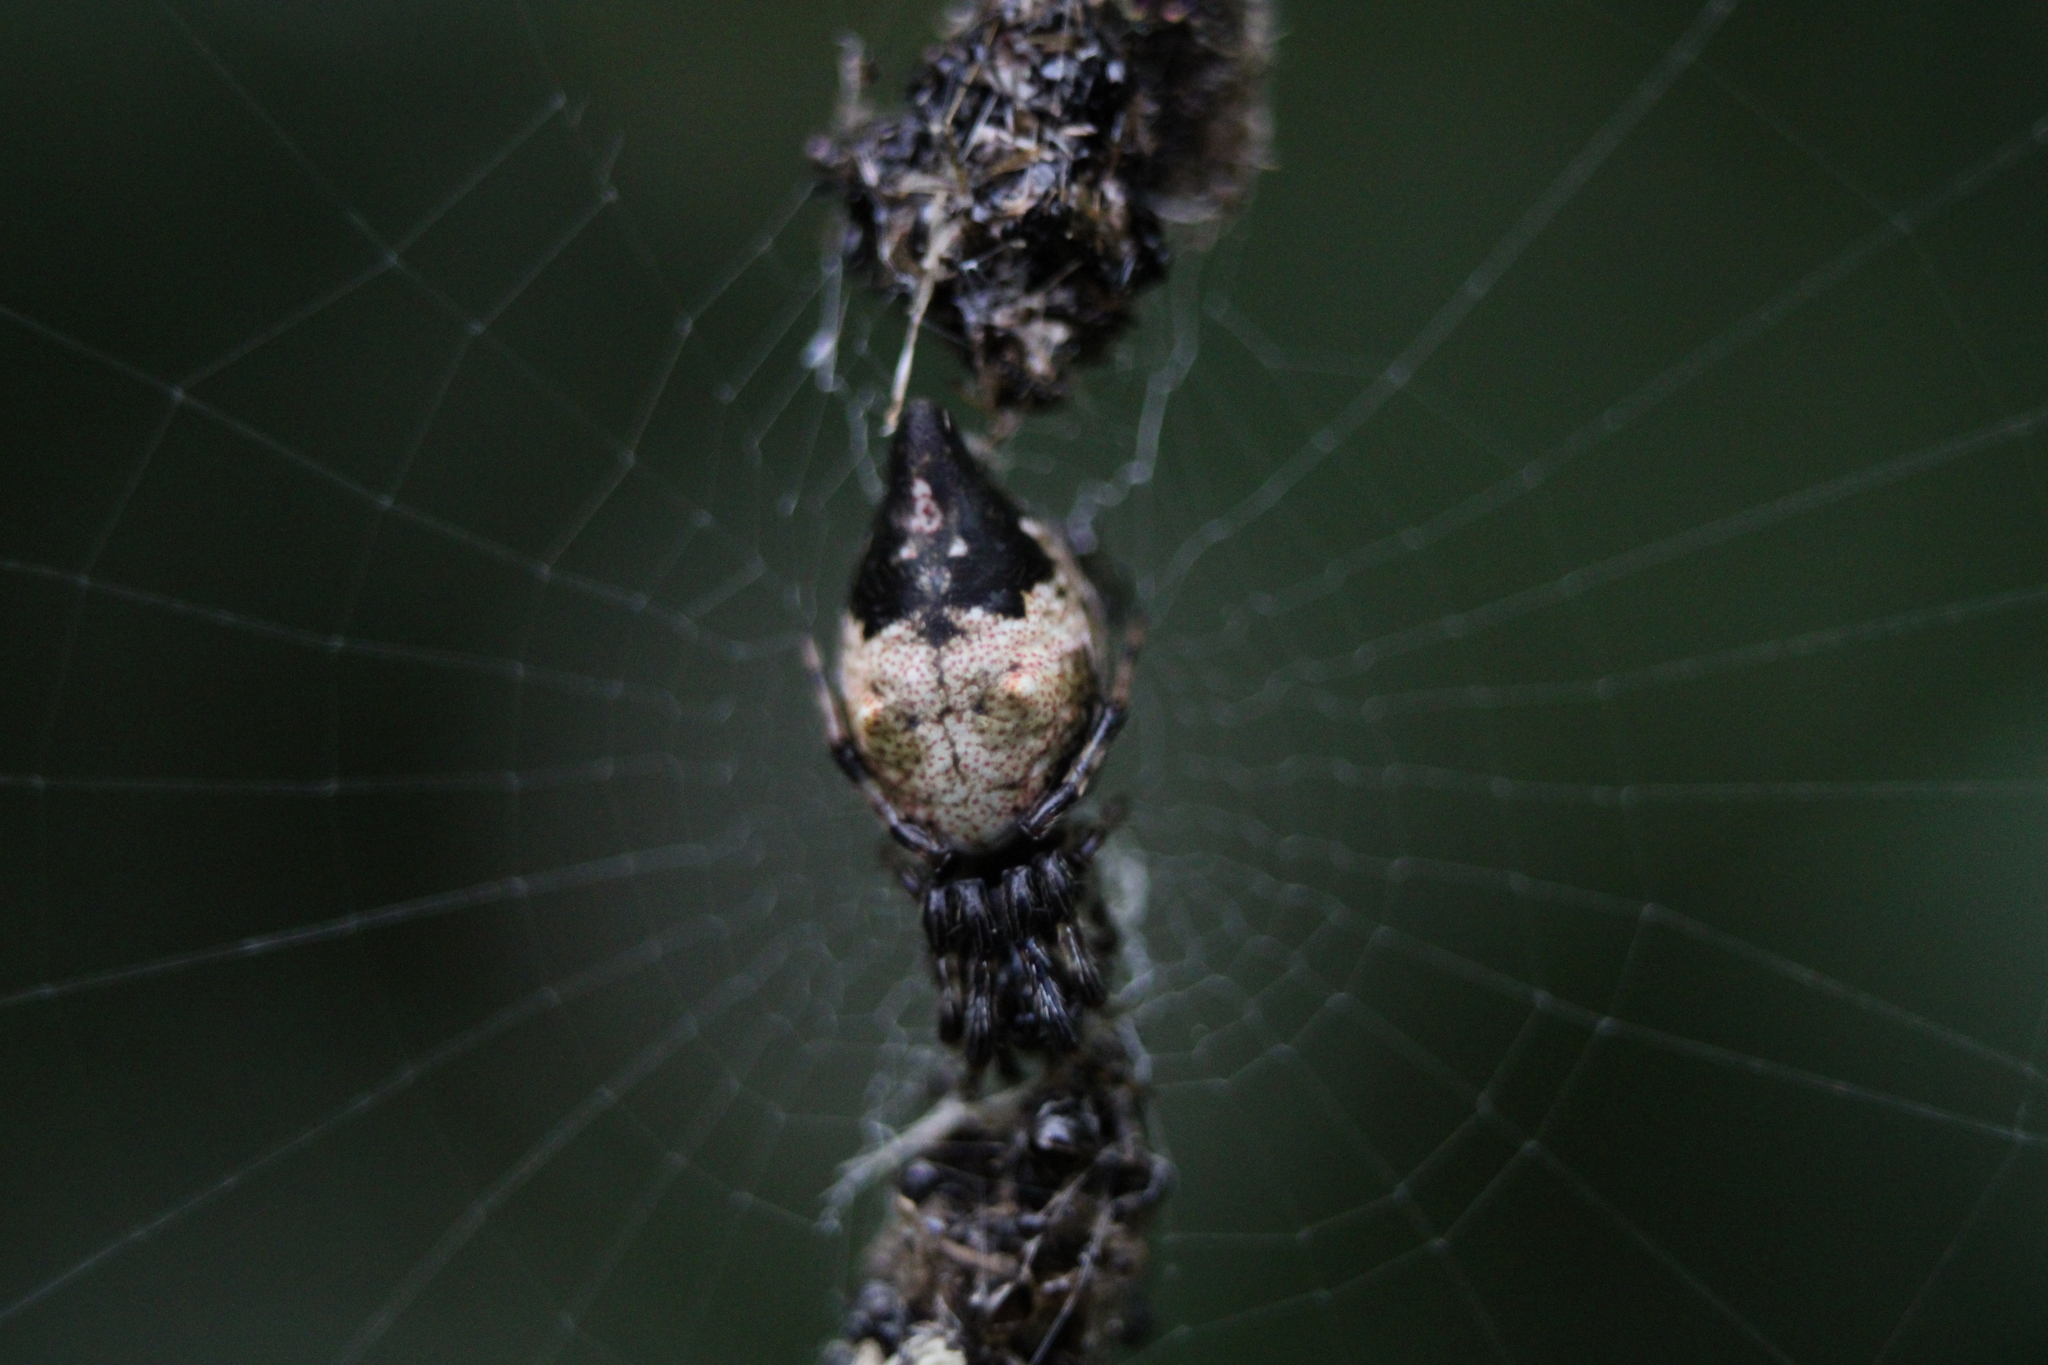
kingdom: Animalia
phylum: Arthropoda
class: Arachnida
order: Araneae
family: Araneidae
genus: Cyclosa
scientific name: Cyclosa turbinata
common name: Orb weavers
